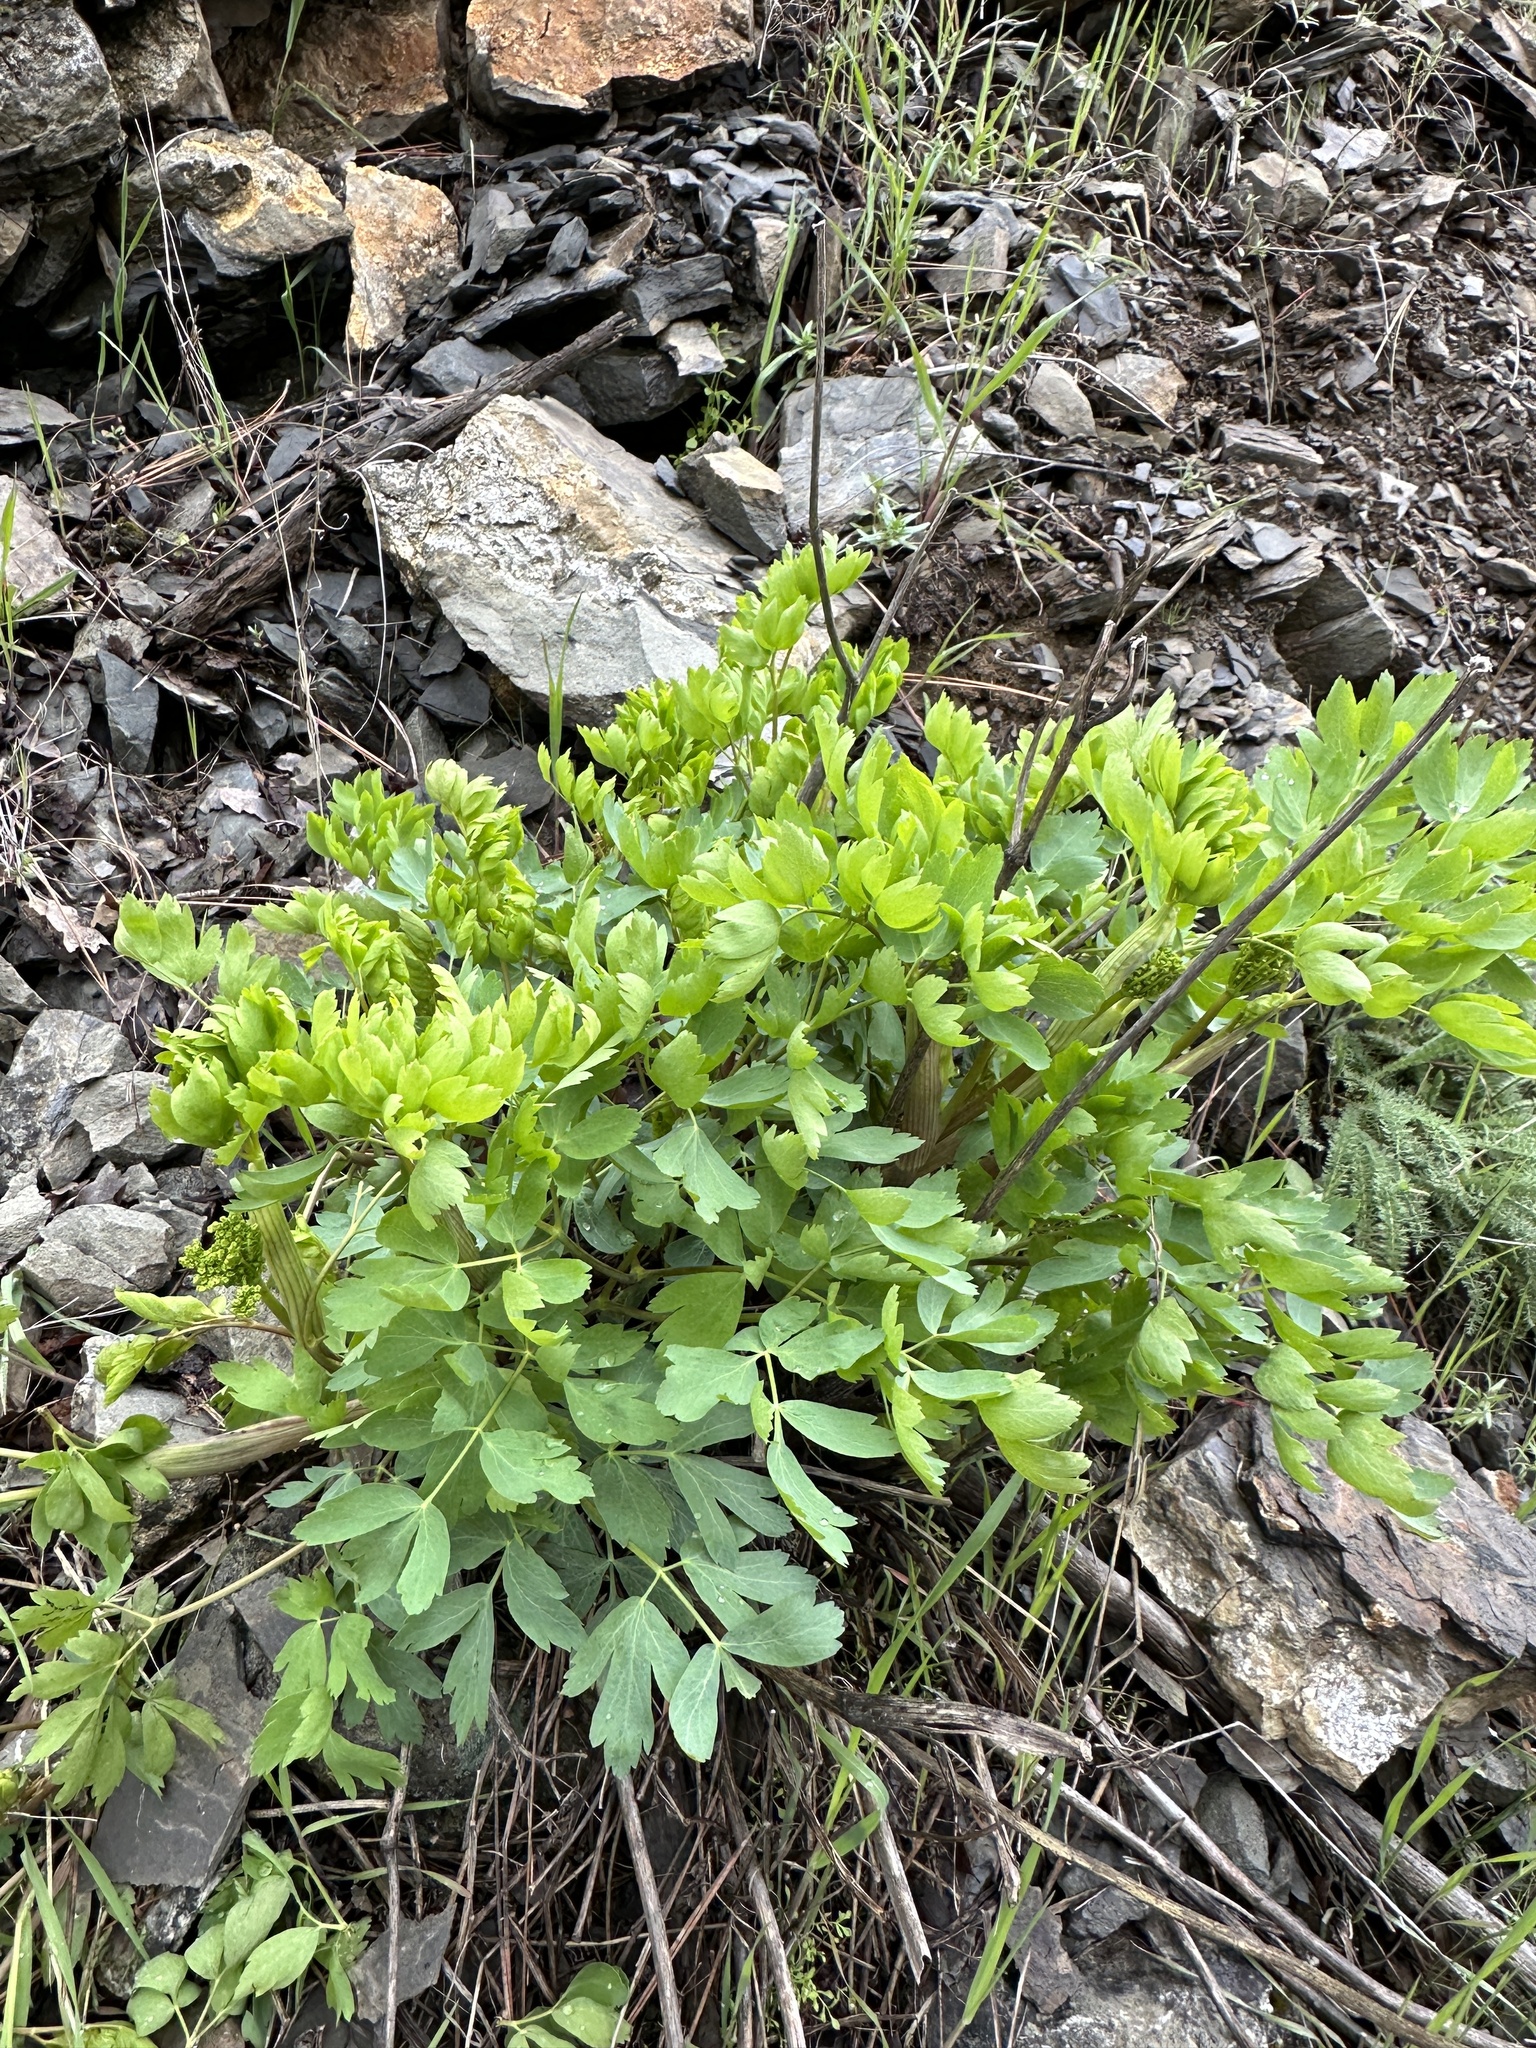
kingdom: Plantae
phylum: Tracheophyta
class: Magnoliopsida
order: Apiales
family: Apiaceae
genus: Lomatium
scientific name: Lomatium californicum
